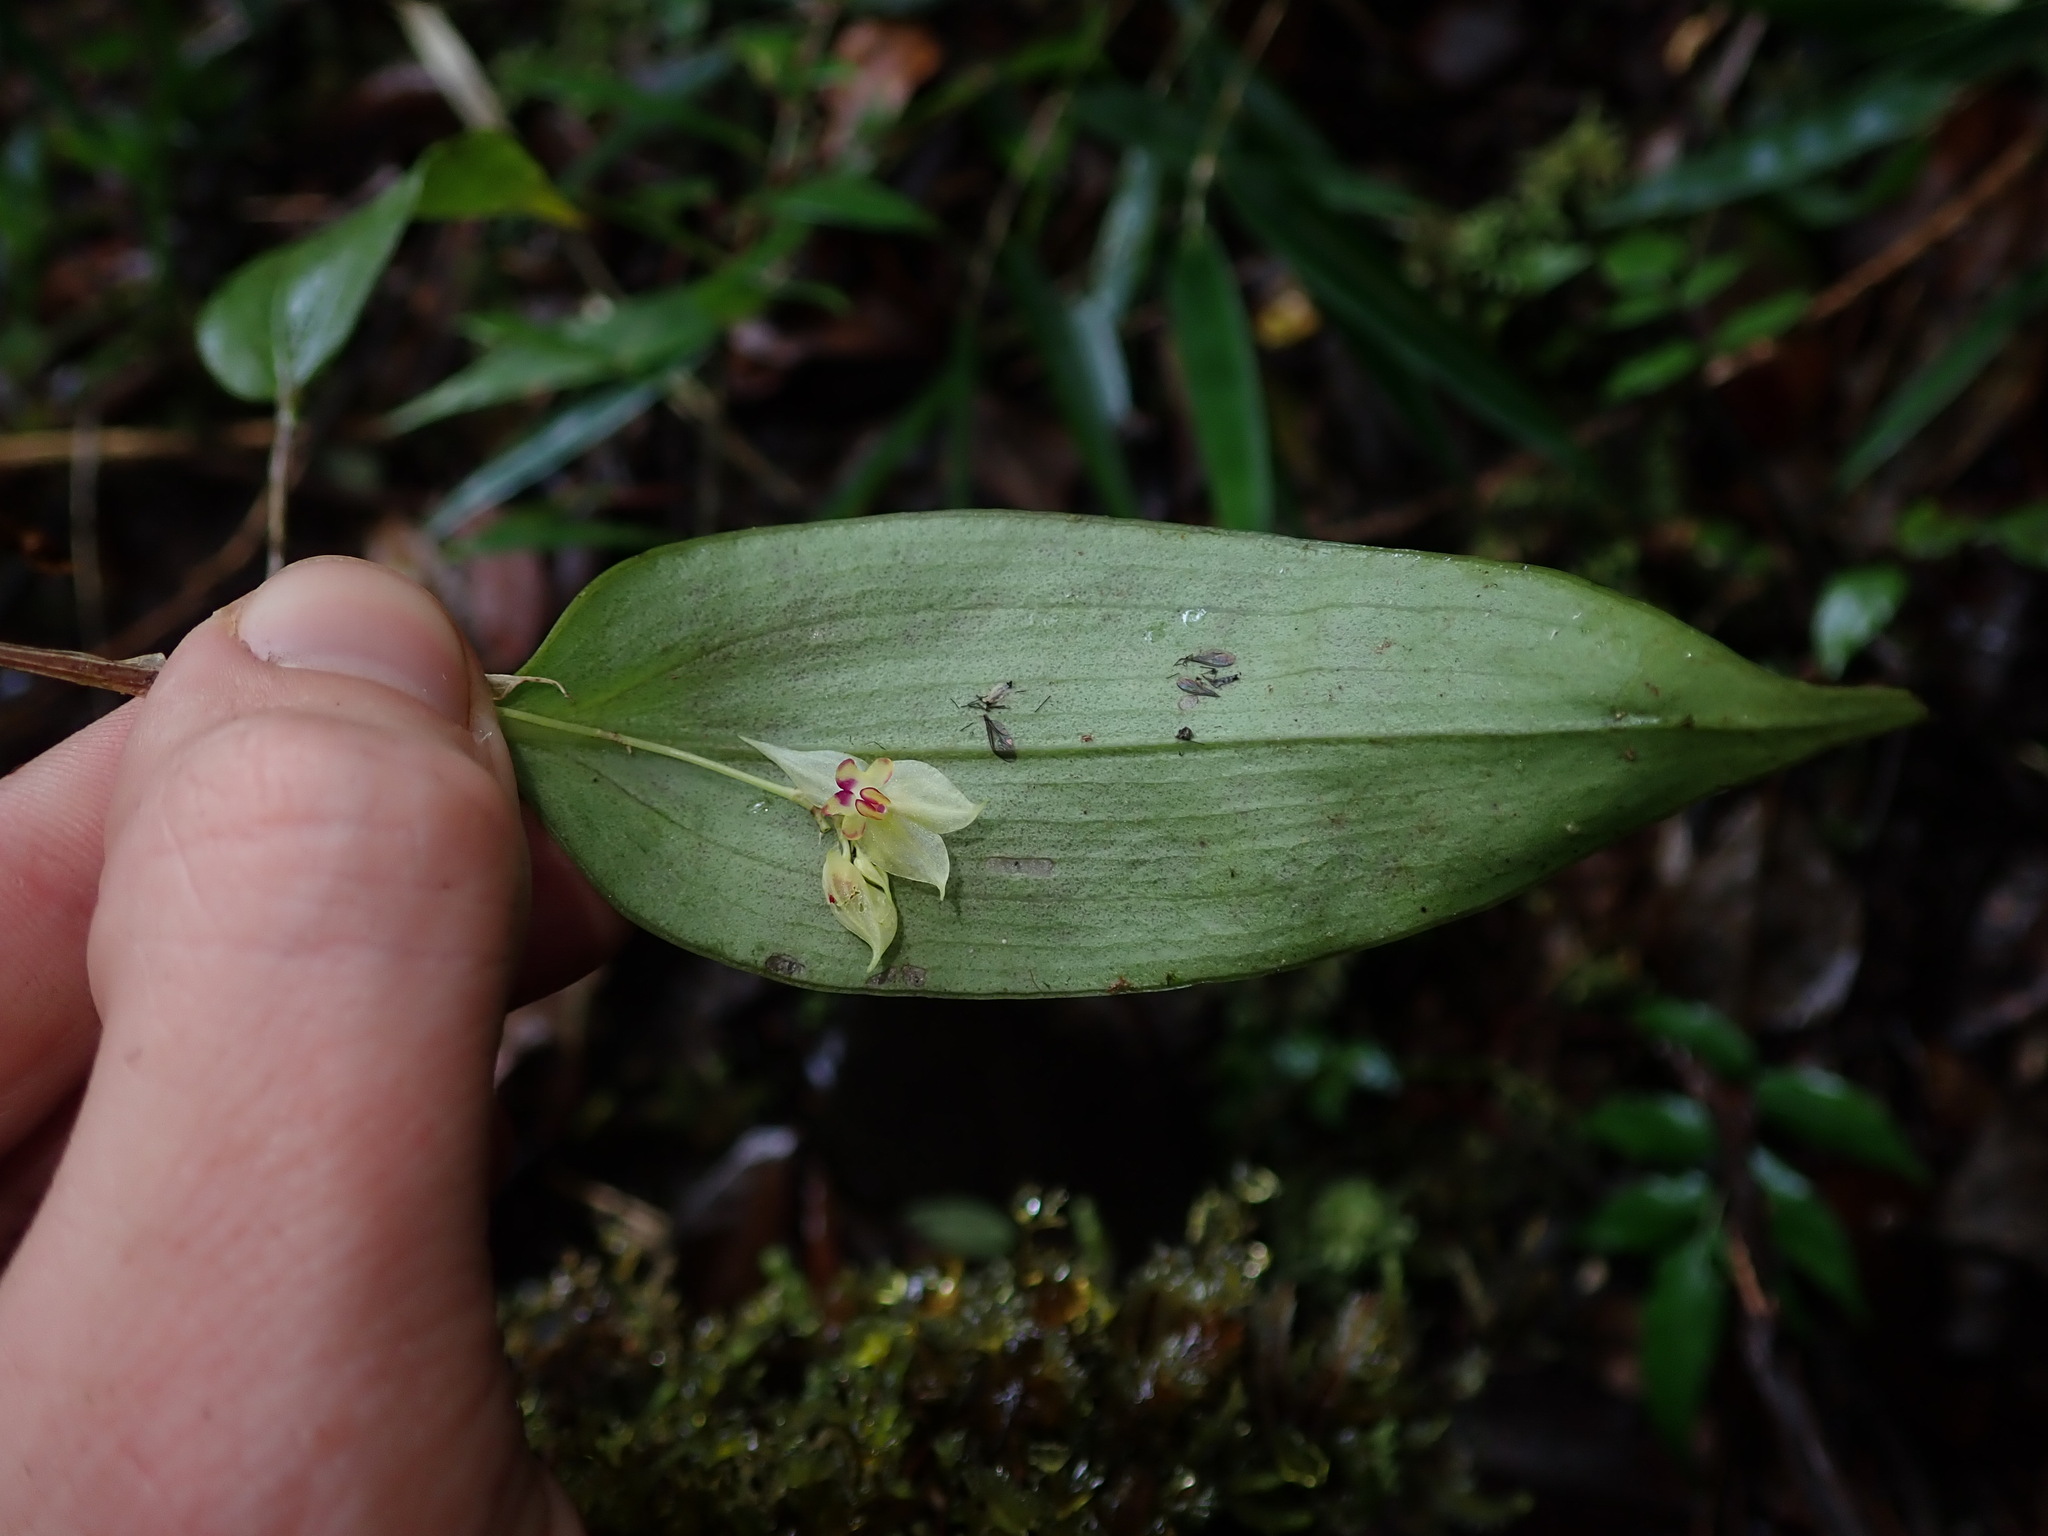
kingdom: Plantae
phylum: Tracheophyta
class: Liliopsida
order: Asparagales
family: Orchidaceae
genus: Lepanthes
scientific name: Lepanthes craticia
